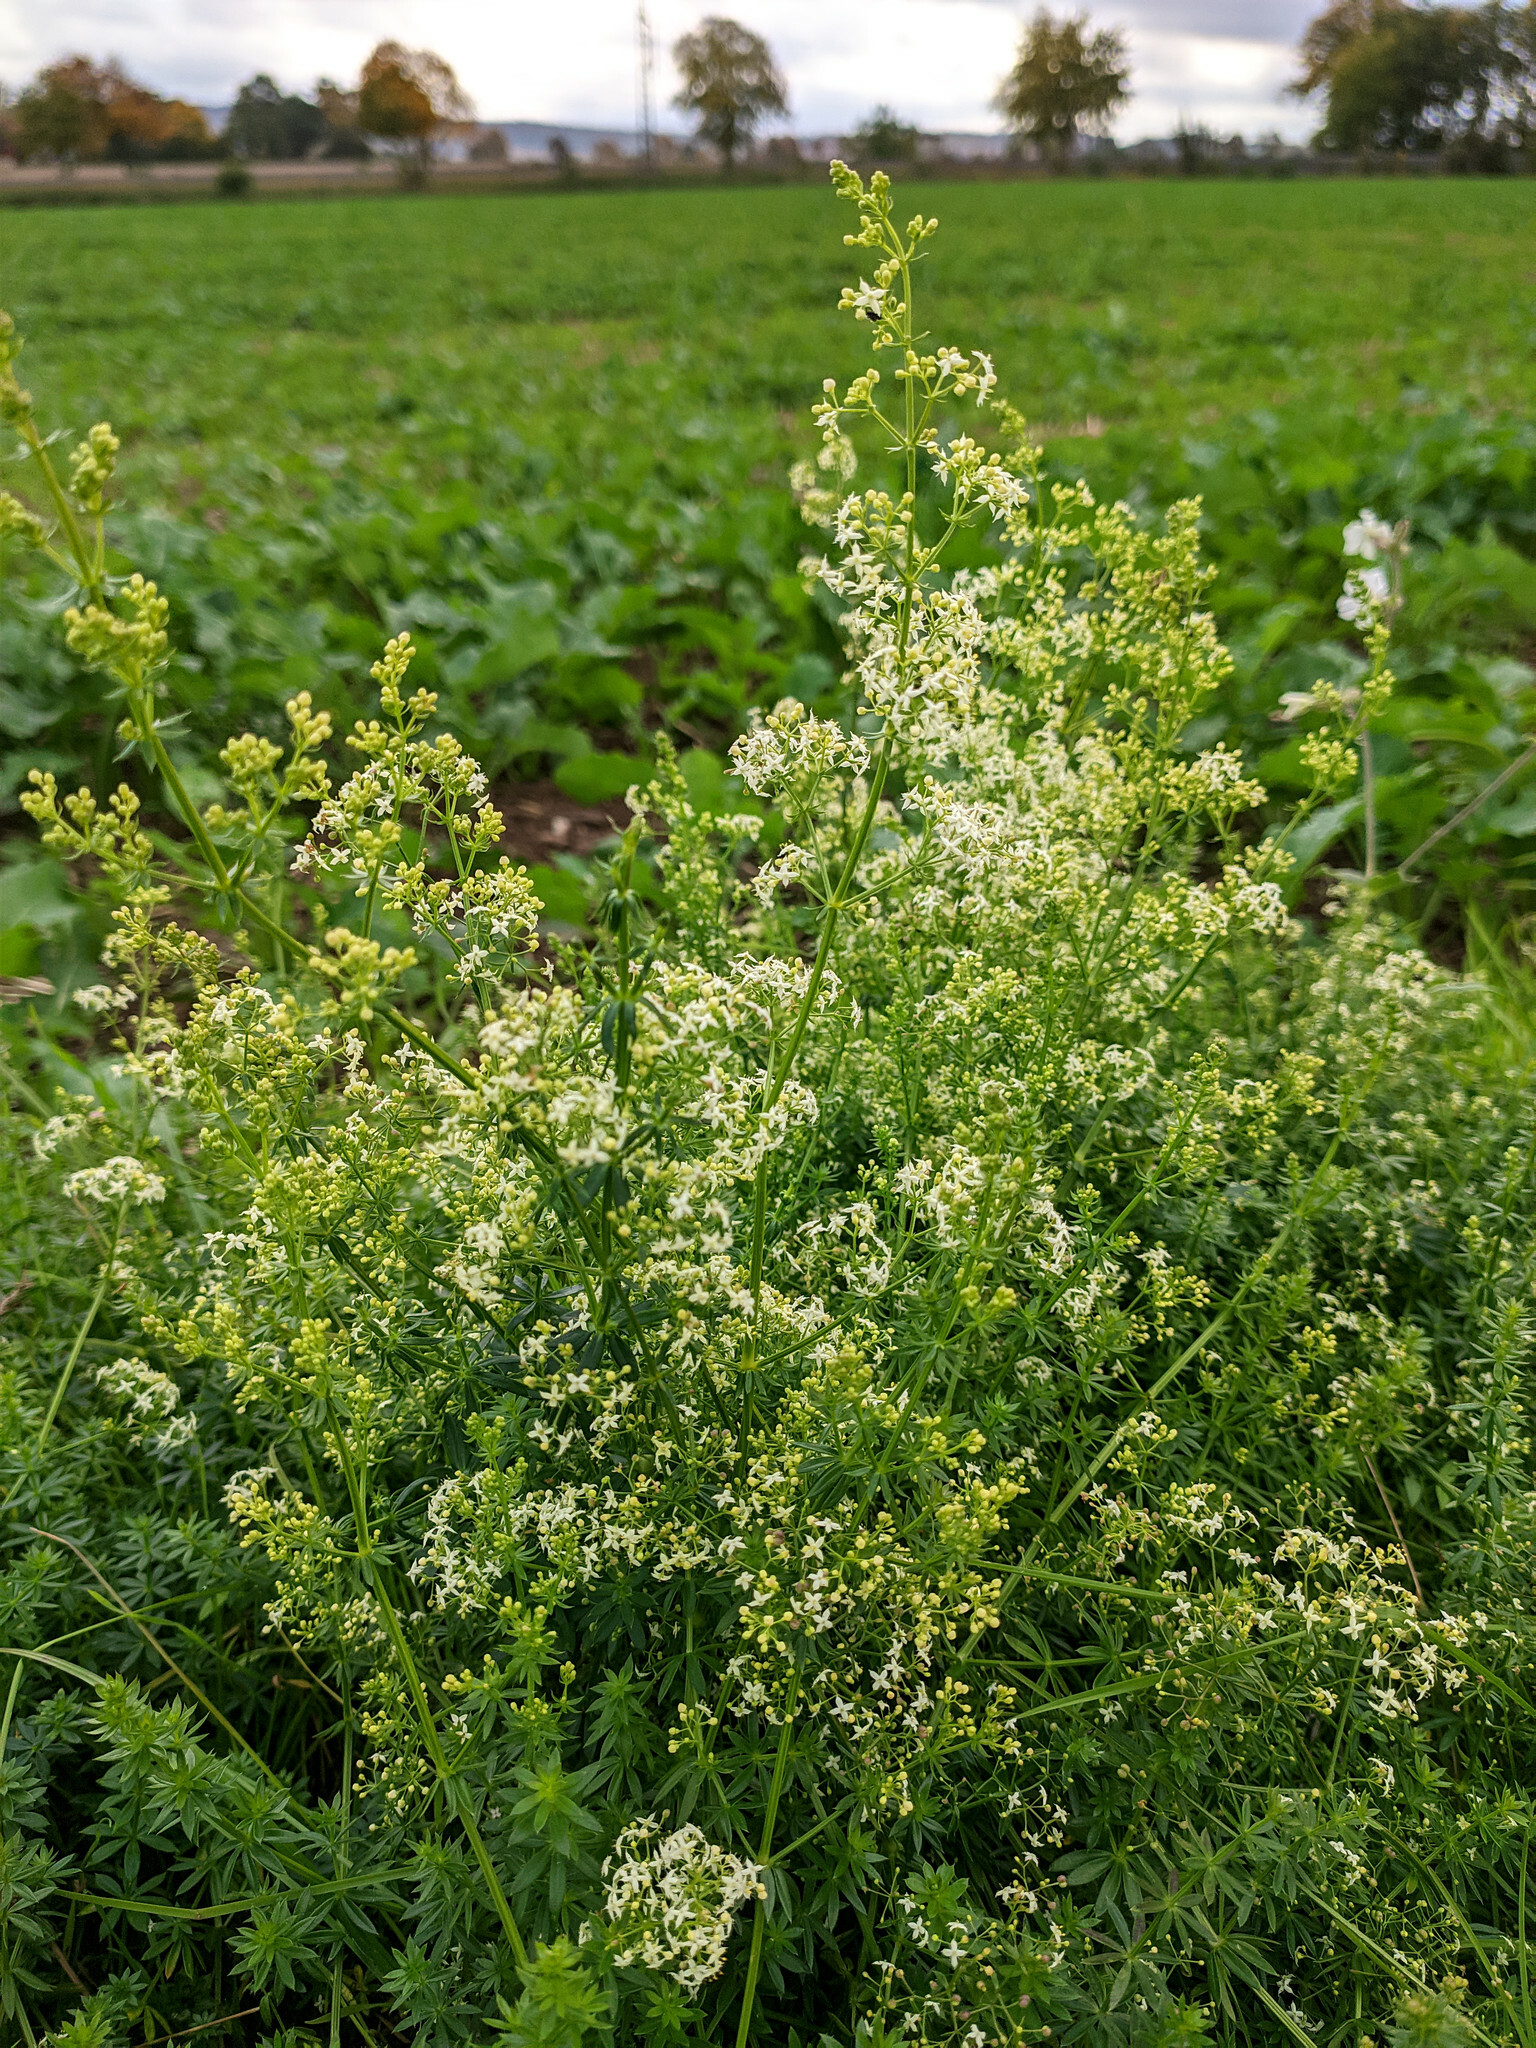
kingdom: Plantae
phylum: Tracheophyta
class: Magnoliopsida
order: Gentianales
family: Rubiaceae
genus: Galium
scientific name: Galium mollugo
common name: Hedge bedstraw
